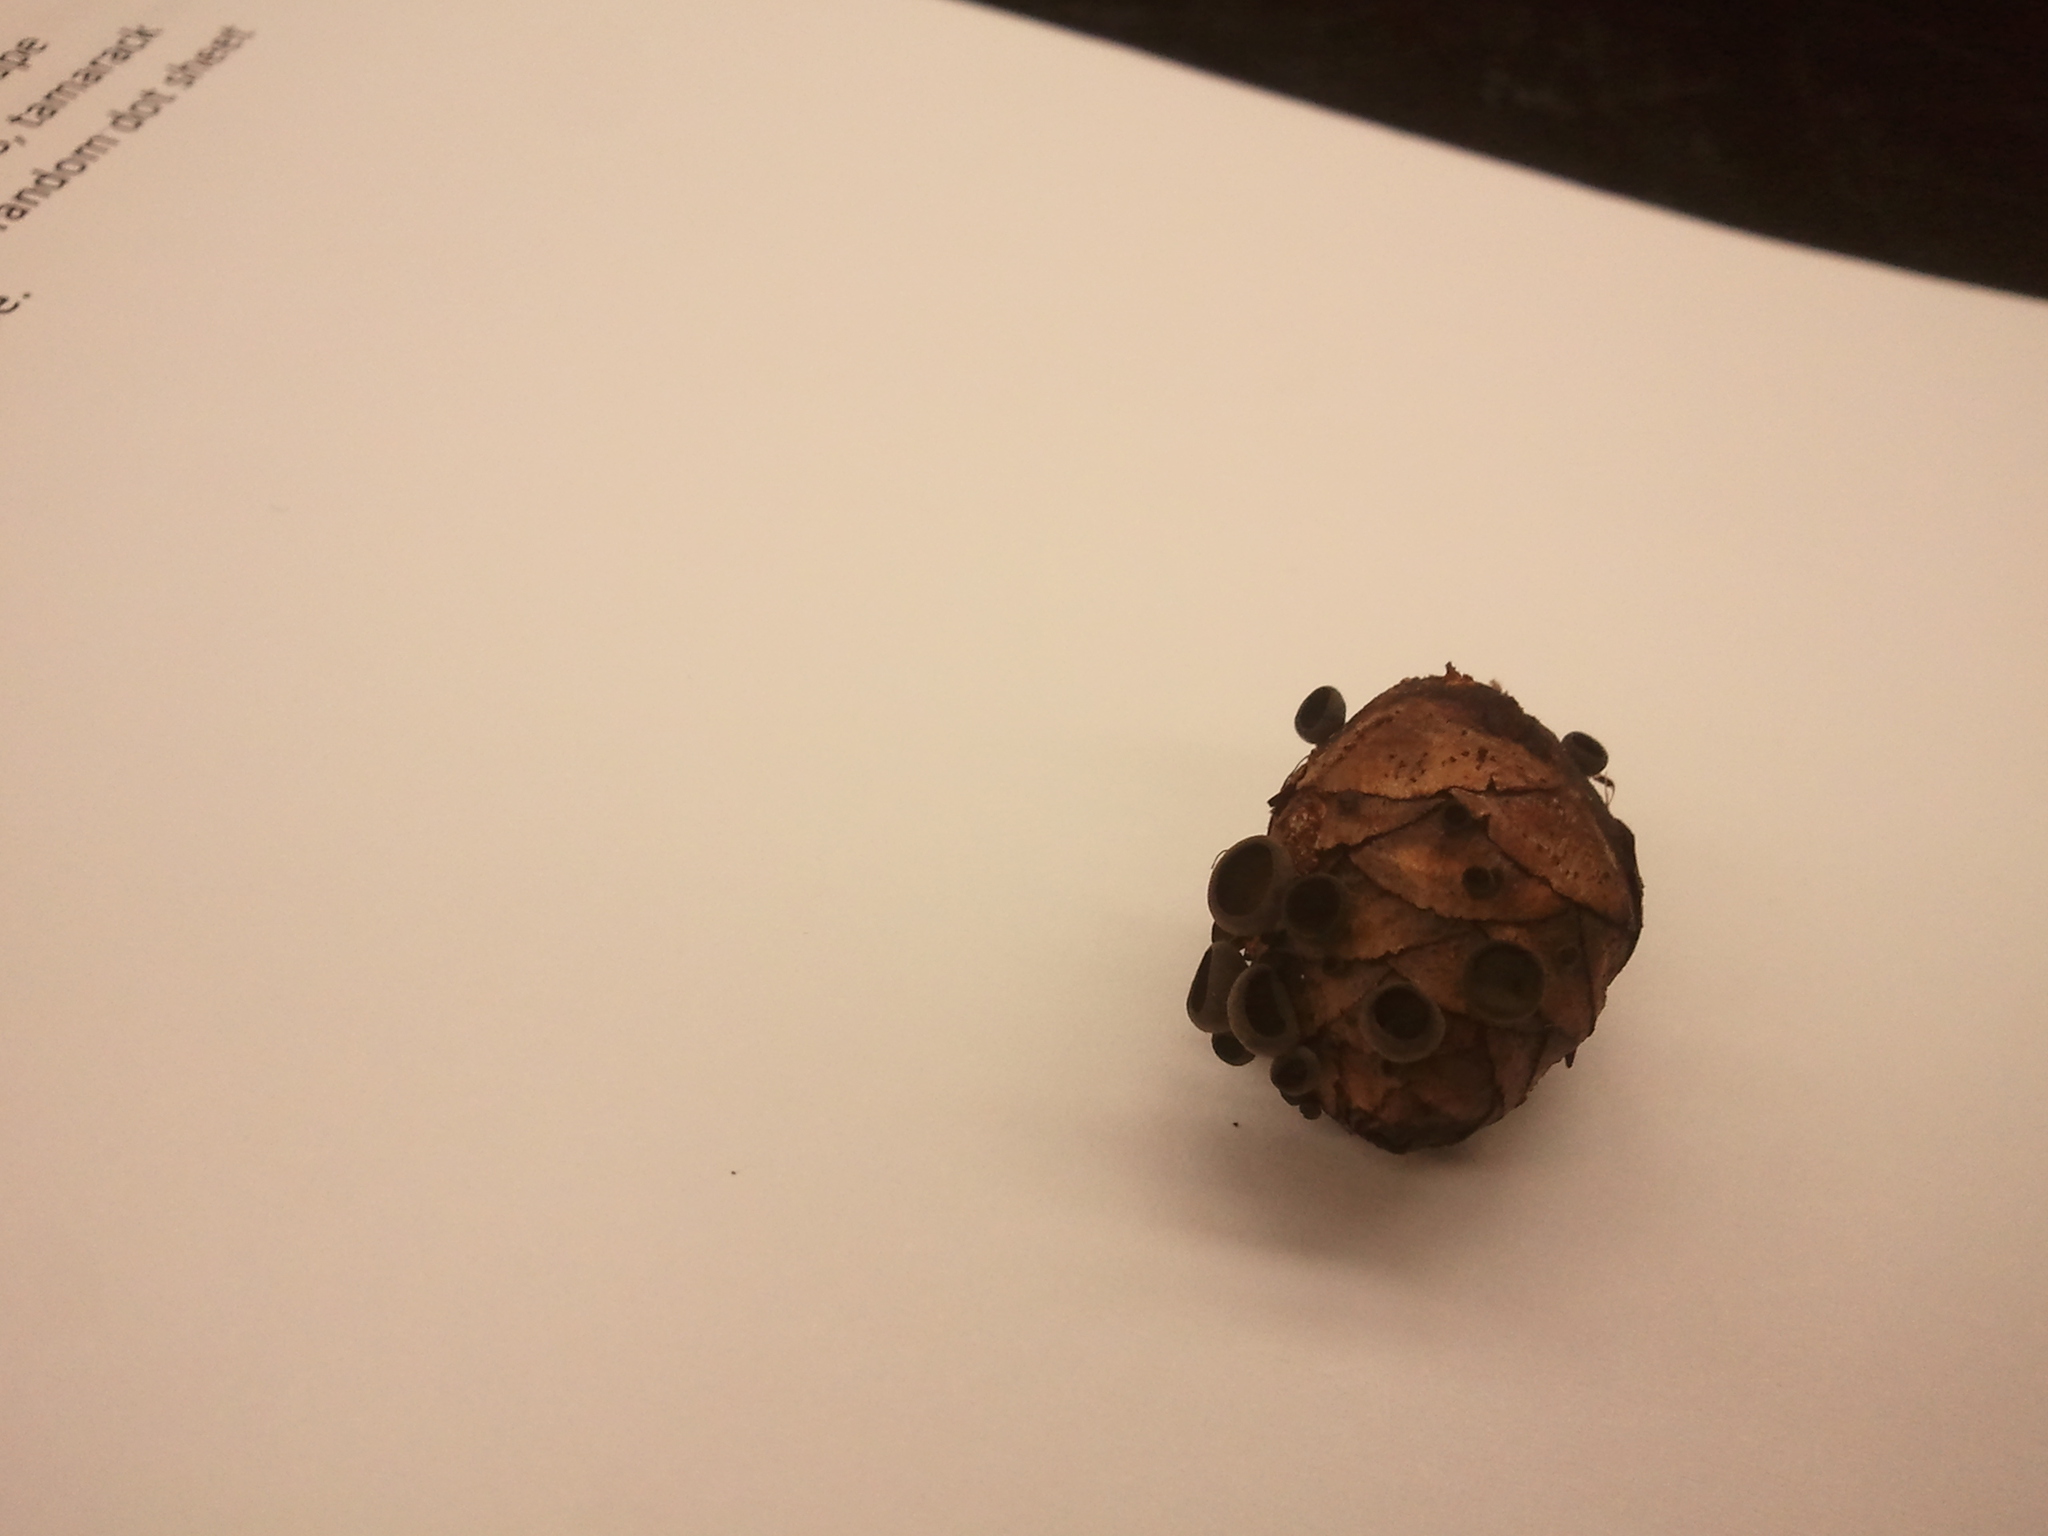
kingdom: Fungi
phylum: Ascomycota
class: Leotiomycetes
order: Helotiales
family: Rutstroemiaceae
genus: Rutstroemia
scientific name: Rutstroemia bulgarioides
